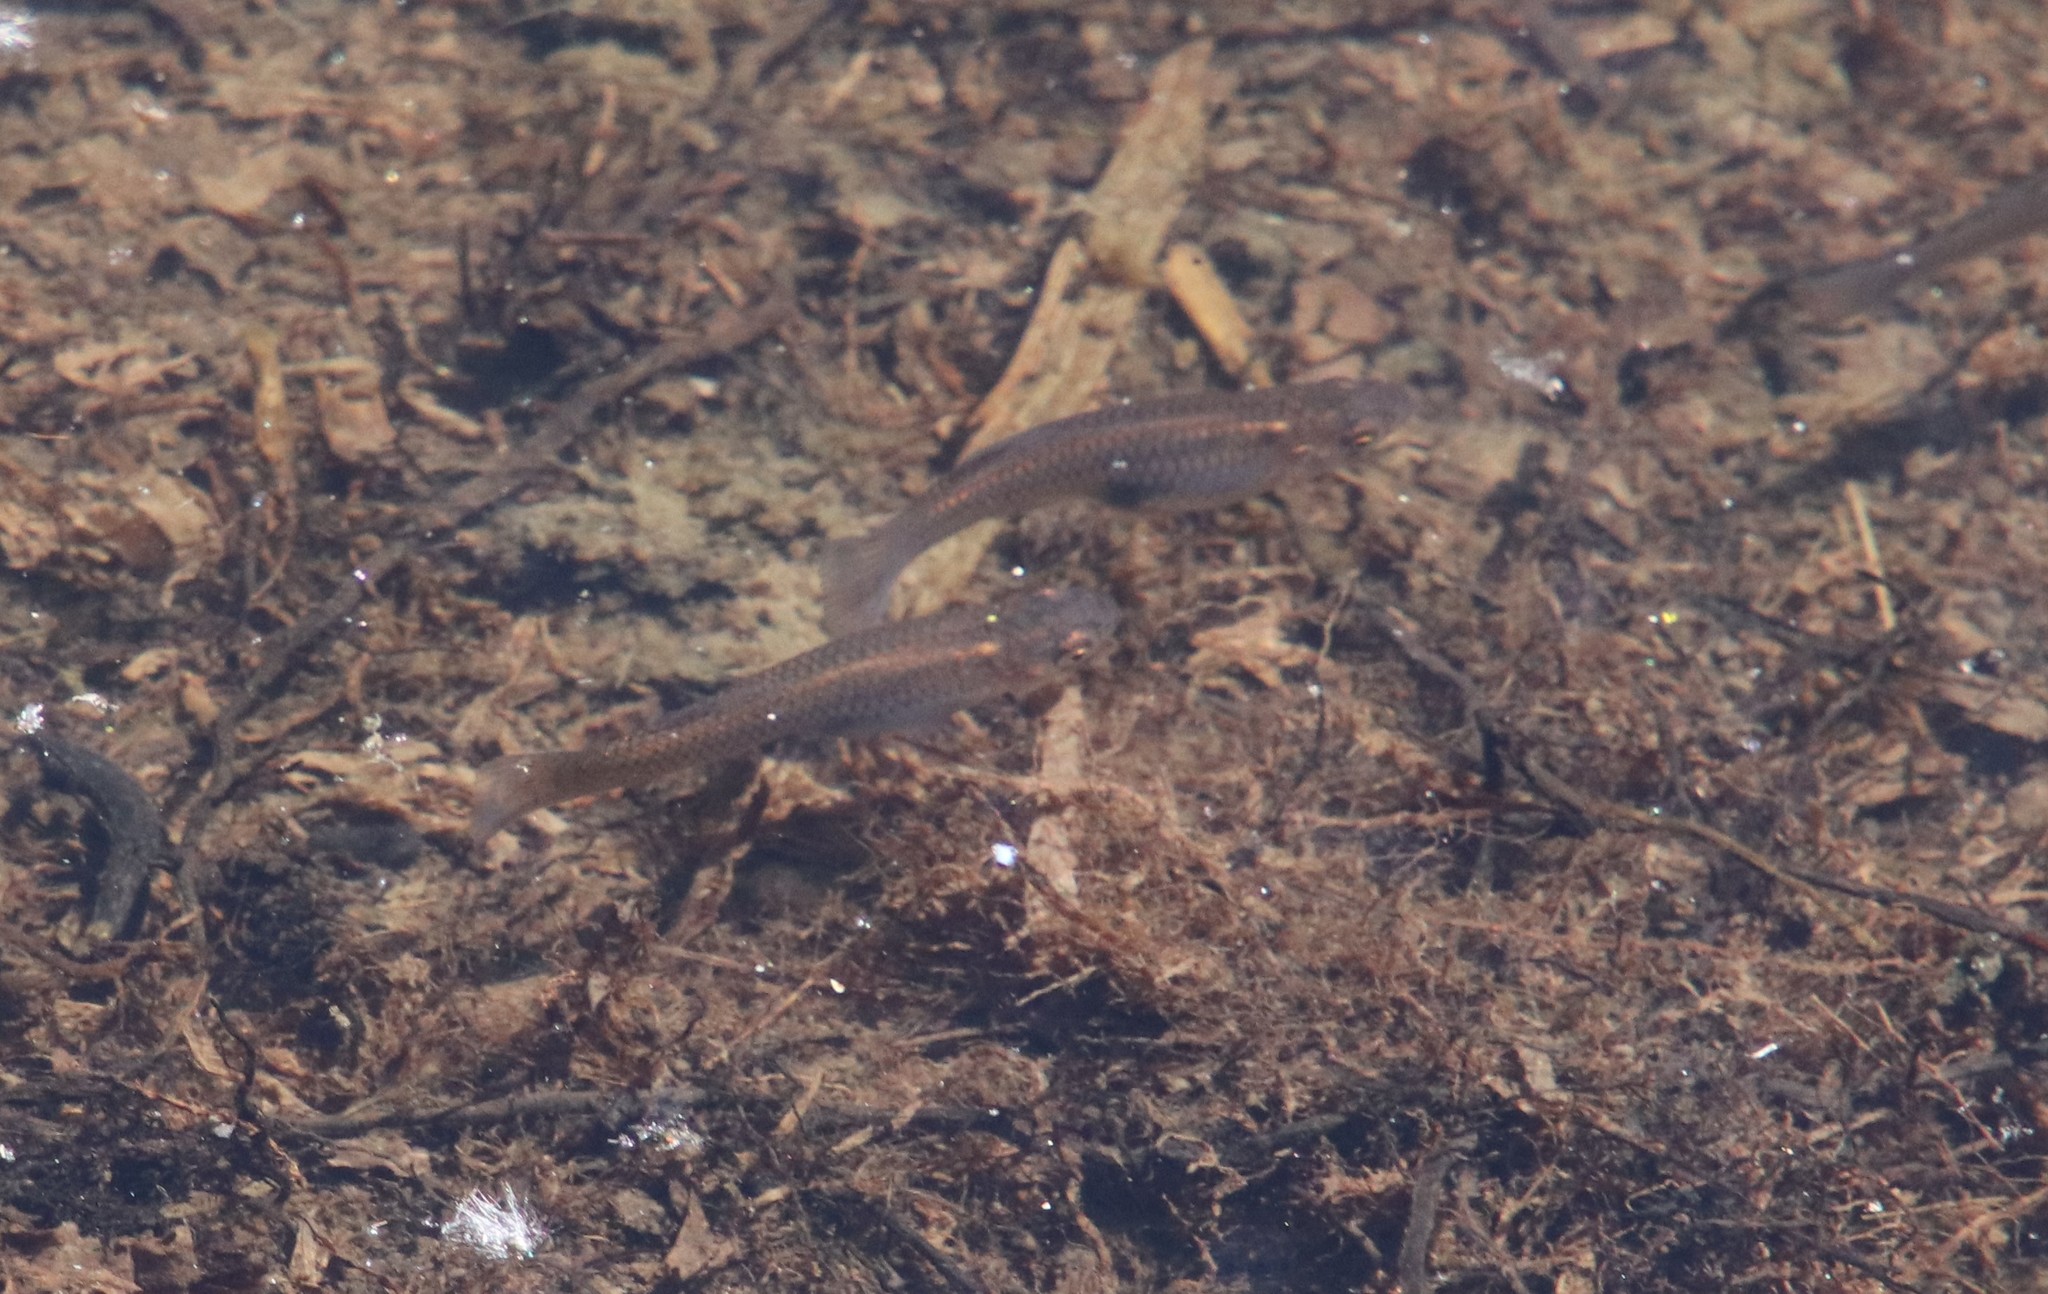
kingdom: Animalia
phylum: Chordata
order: Cyprinodontiformes
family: Poeciliidae
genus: Gambusia
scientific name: Gambusia affinis
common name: Mosquitofish
